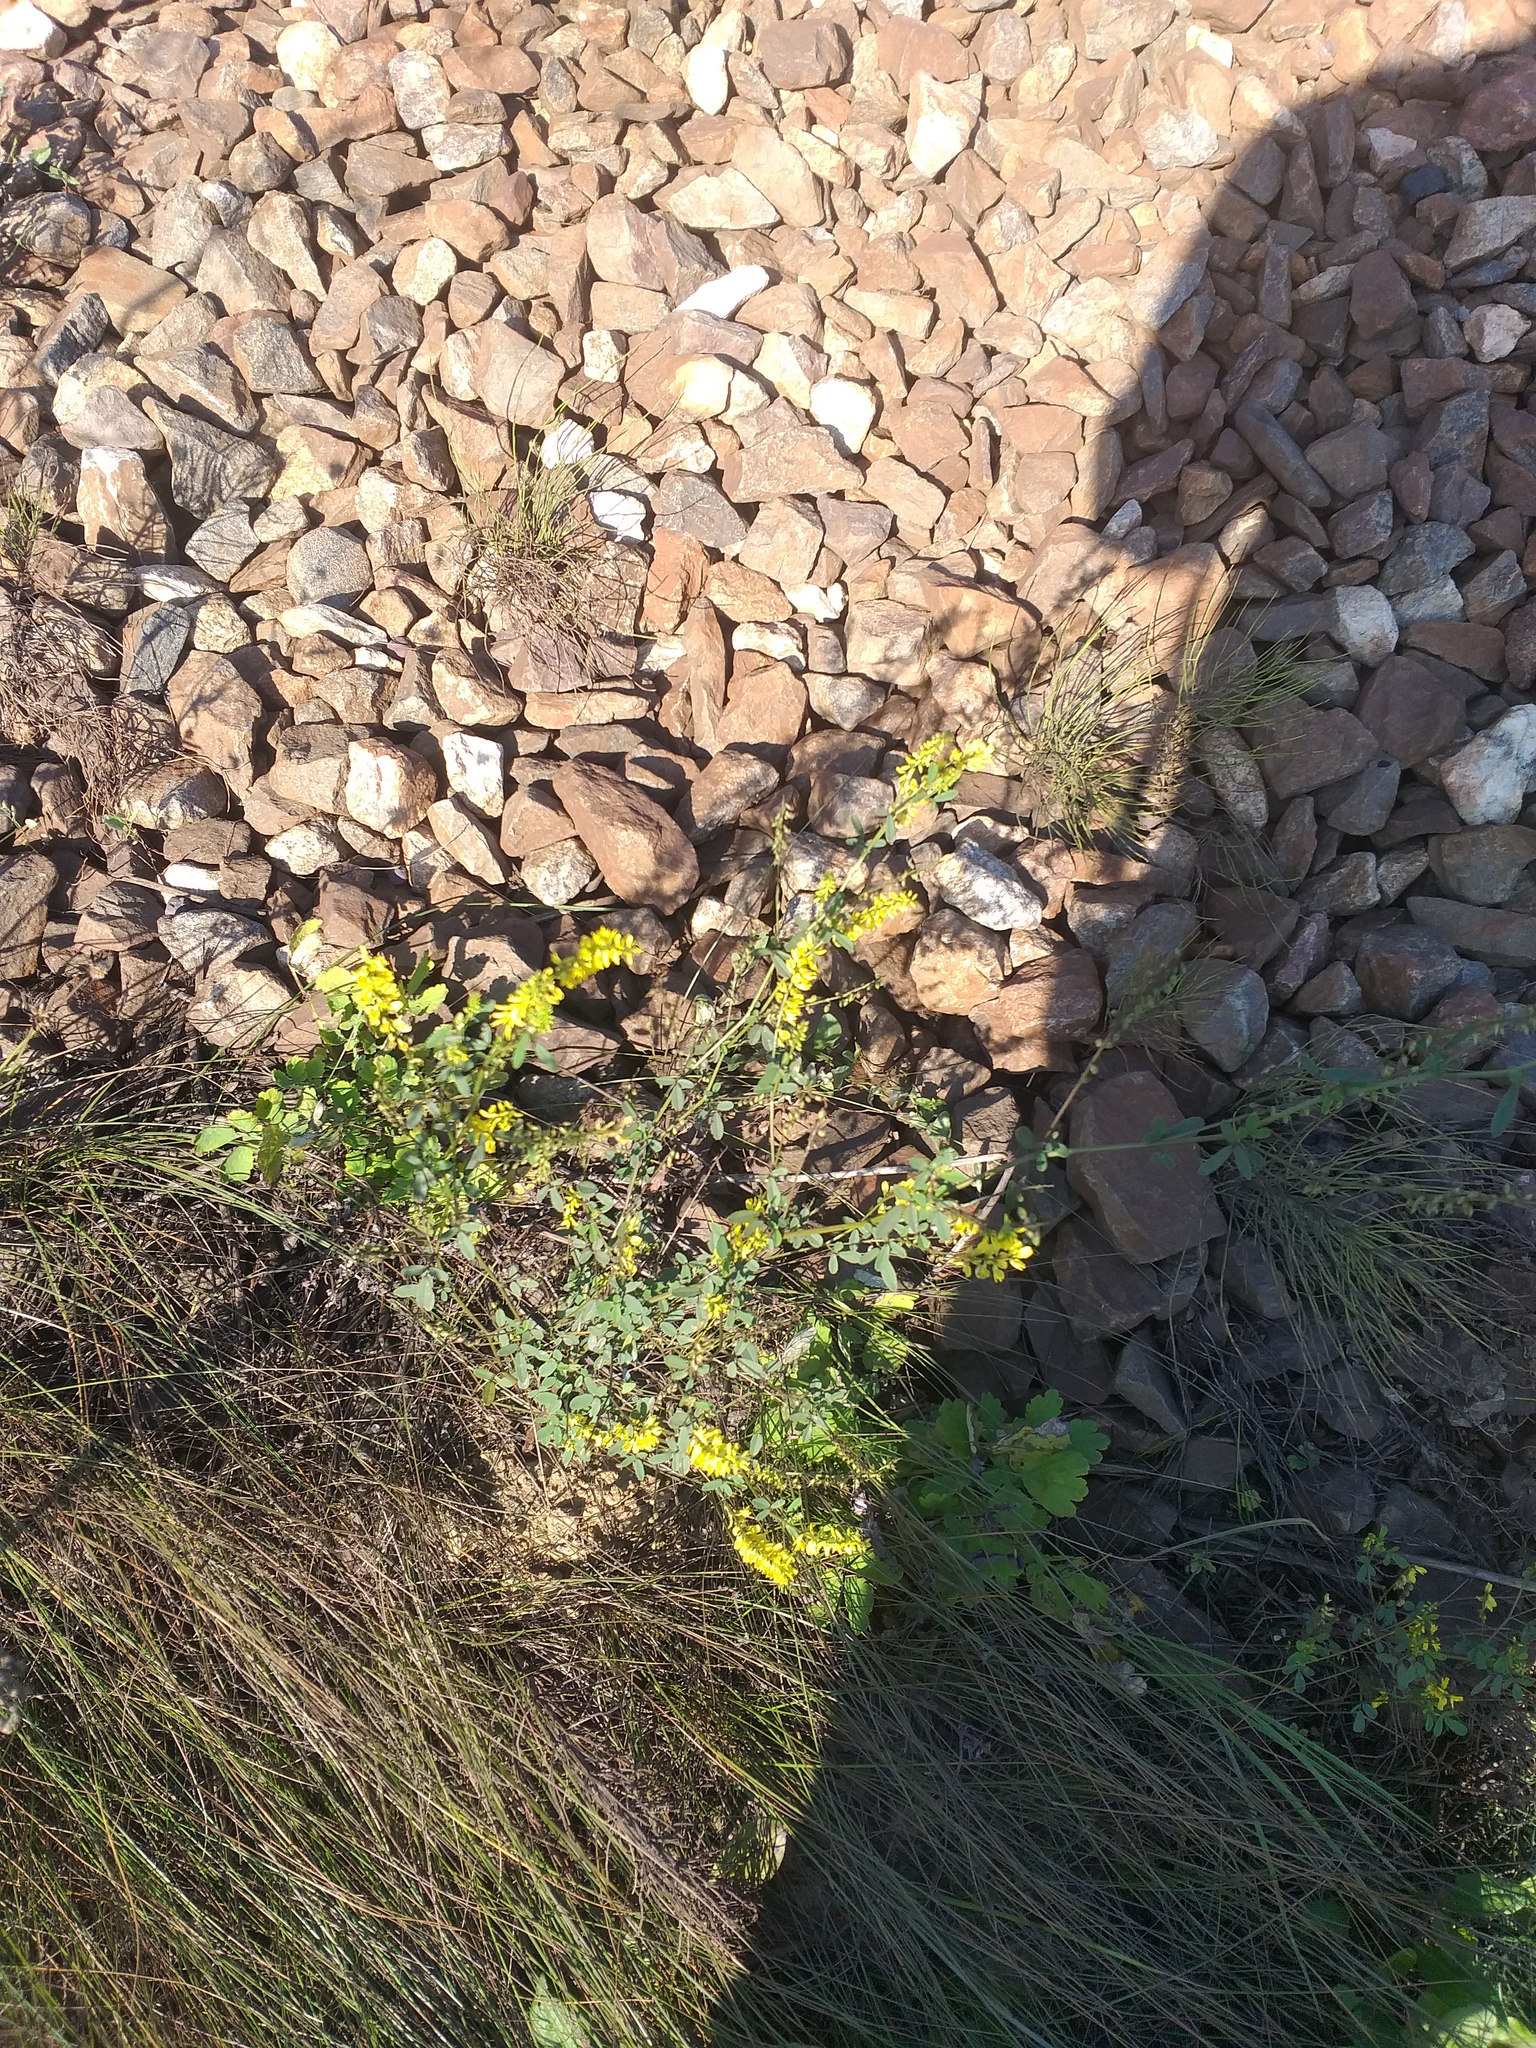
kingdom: Plantae
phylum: Tracheophyta
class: Magnoliopsida
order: Fabales
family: Fabaceae
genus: Melilotus
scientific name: Melilotus officinalis
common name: Sweetclover
